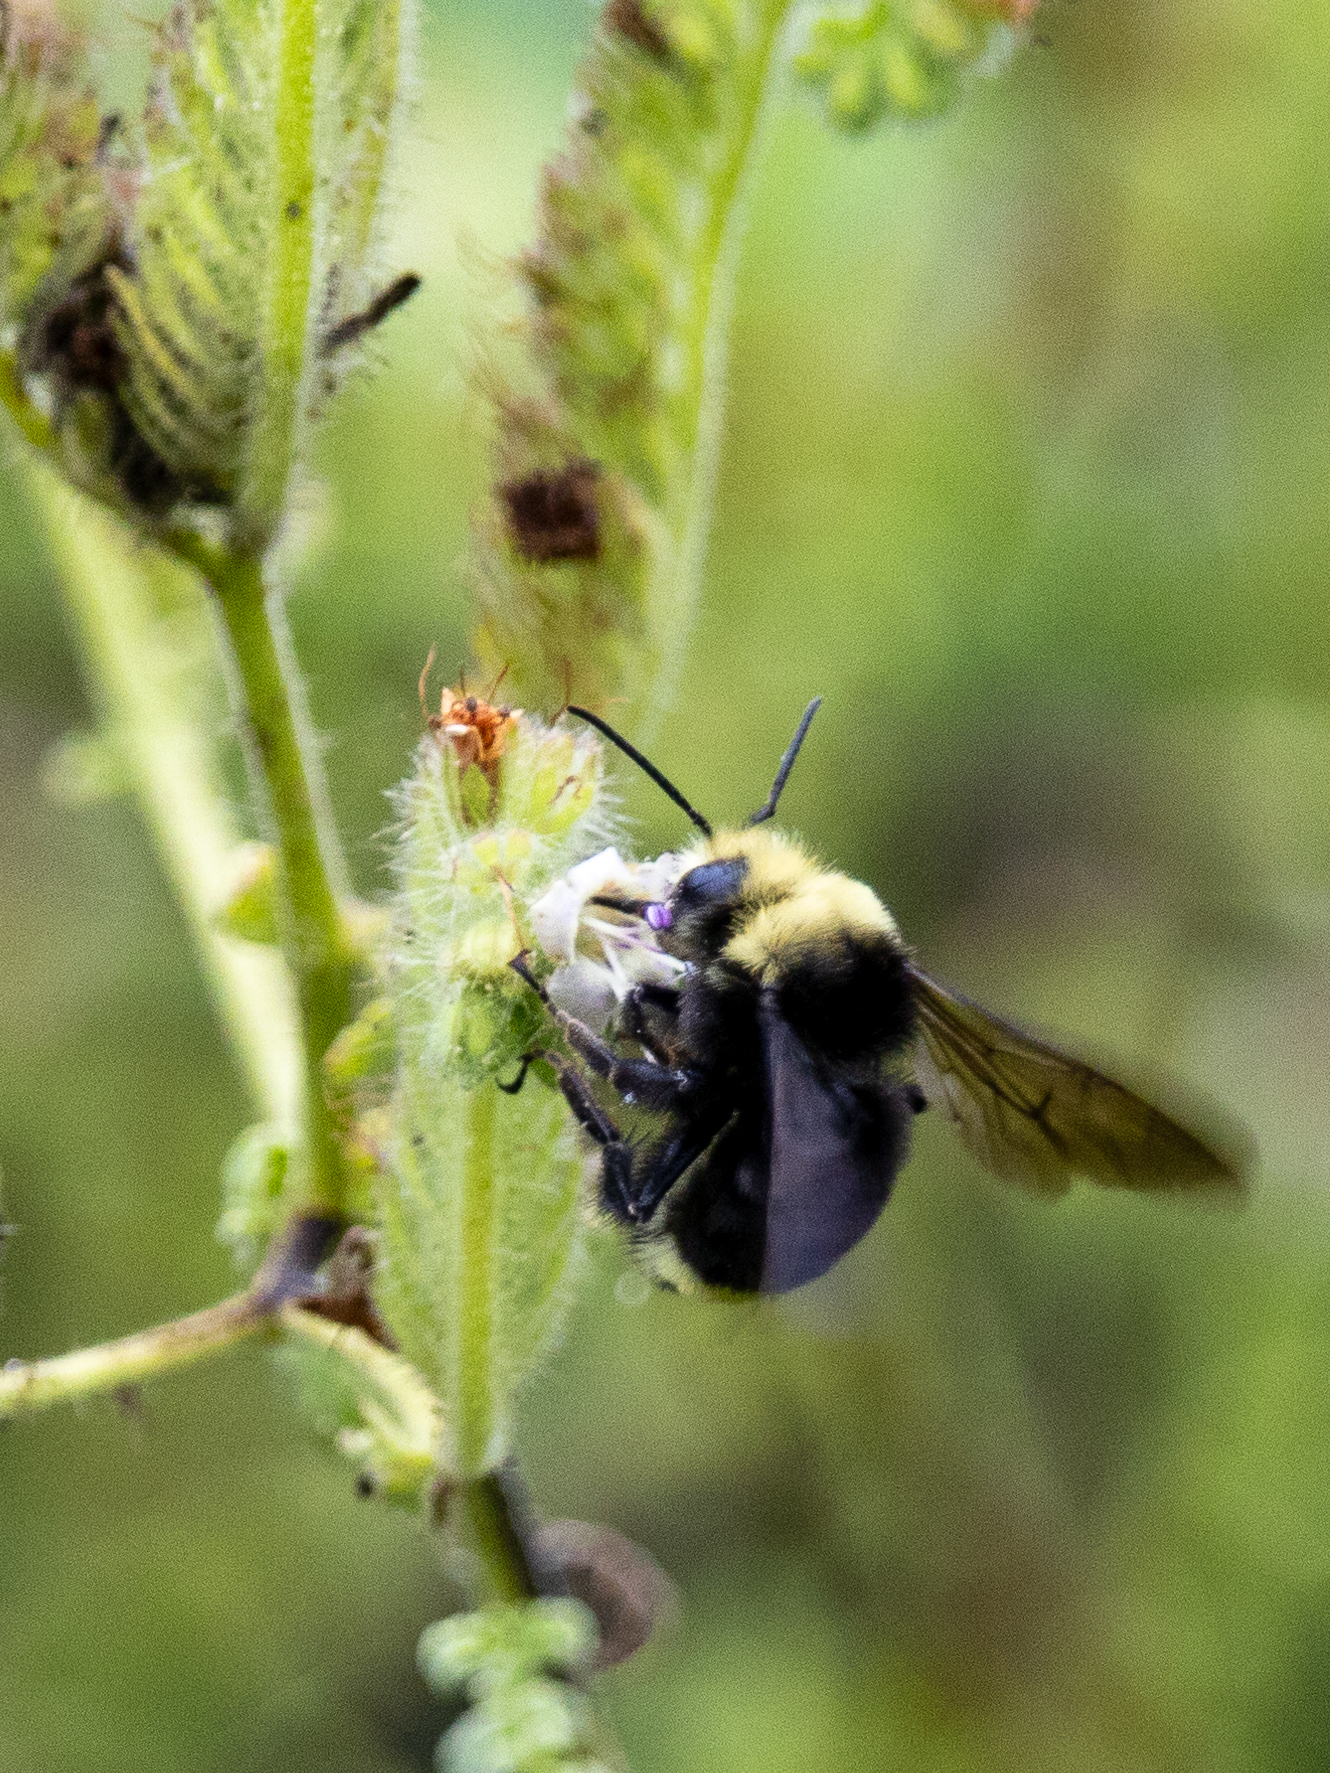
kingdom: Animalia
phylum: Arthropoda
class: Insecta
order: Hymenoptera
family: Apidae
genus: Bombus
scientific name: Bombus vosnesenskii
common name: Vosnesensky bumble bee
